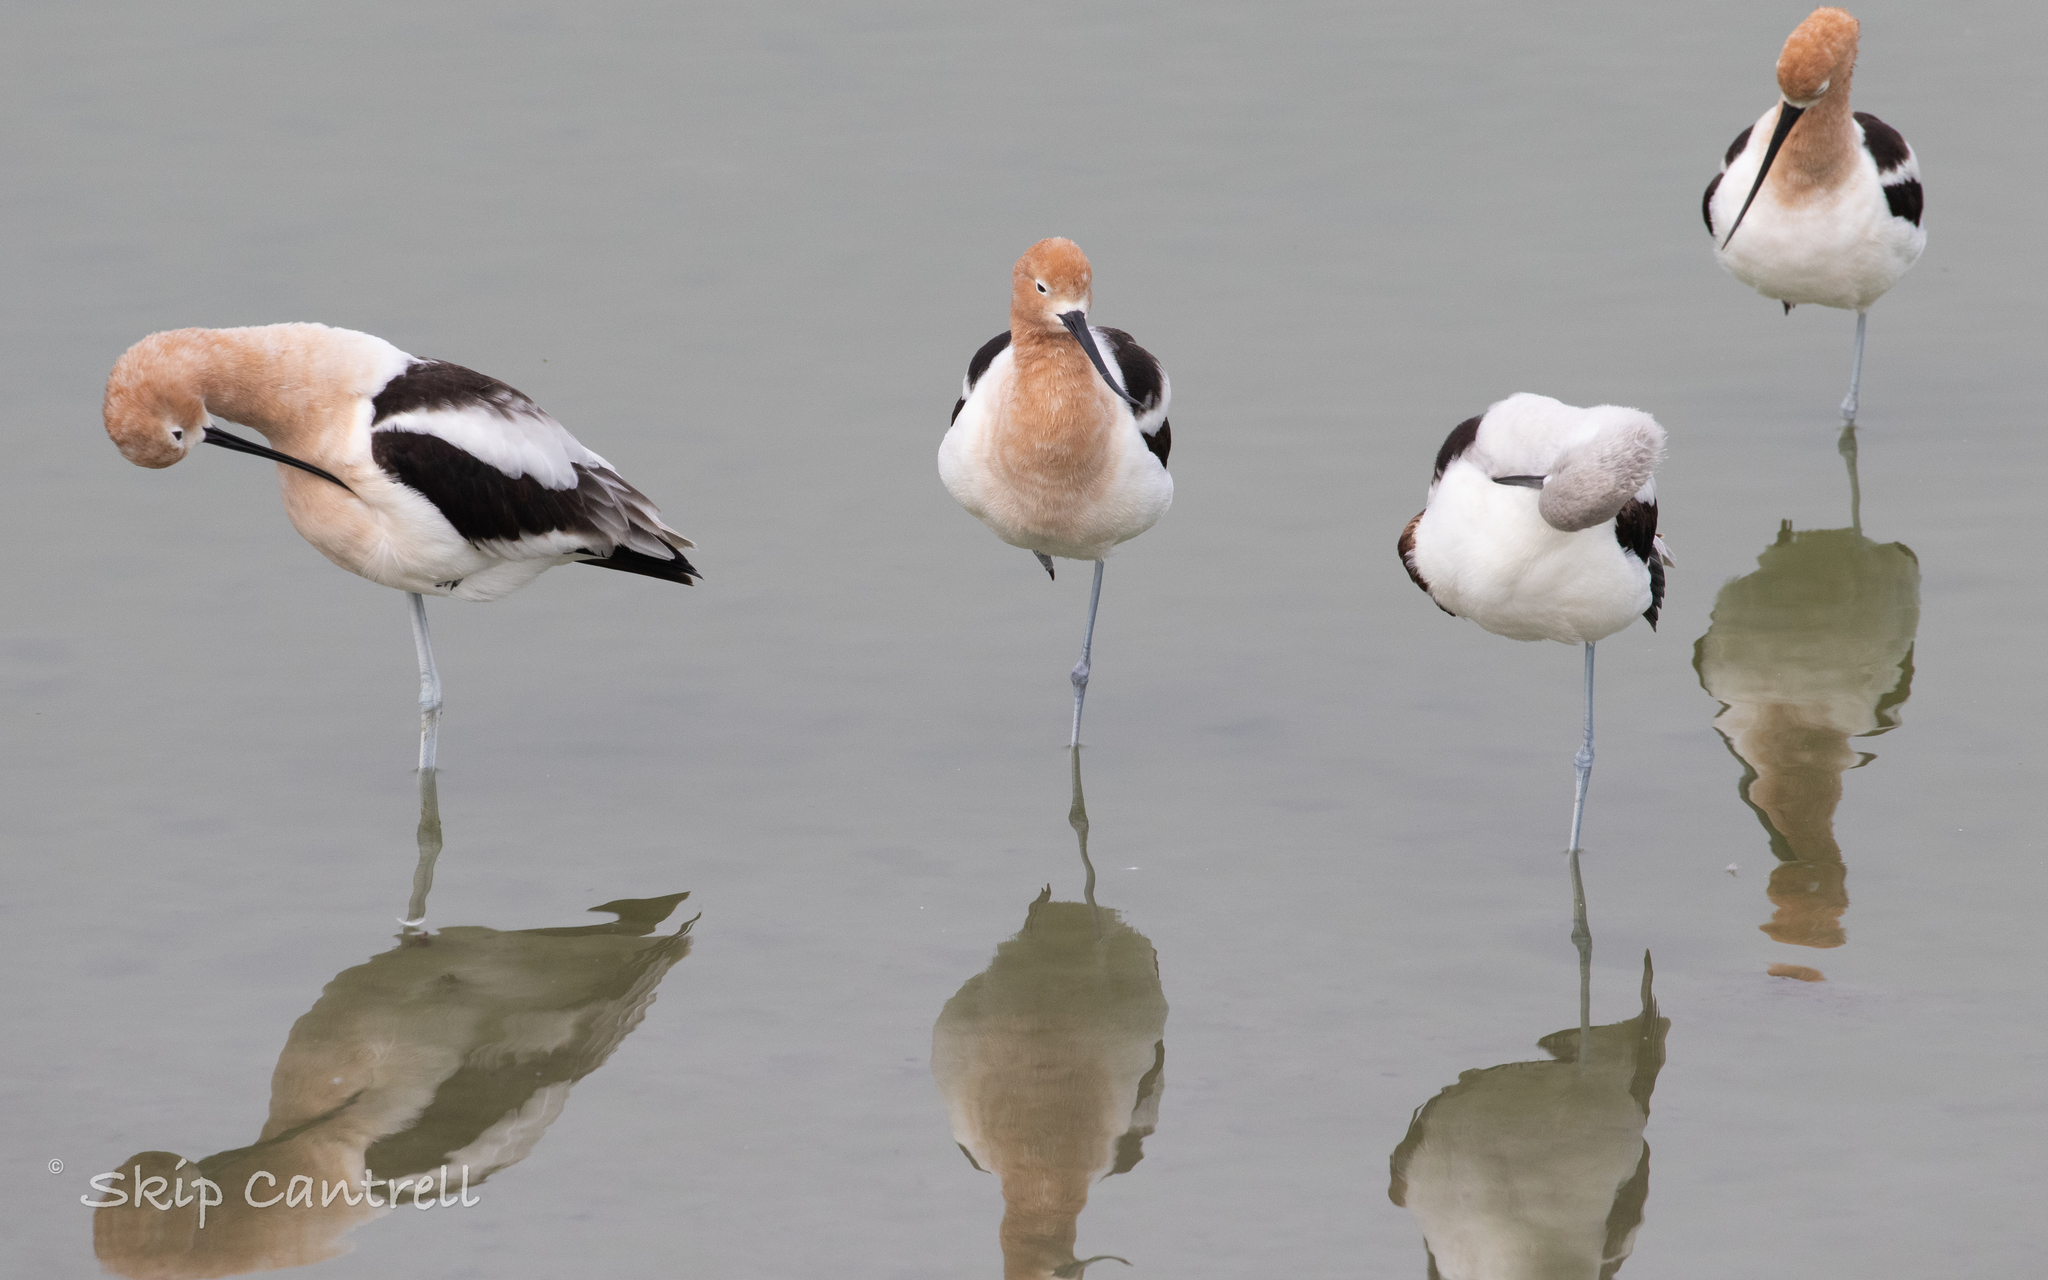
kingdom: Animalia
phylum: Chordata
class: Aves
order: Charadriiformes
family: Recurvirostridae
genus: Recurvirostra
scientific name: Recurvirostra americana
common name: American avocet
